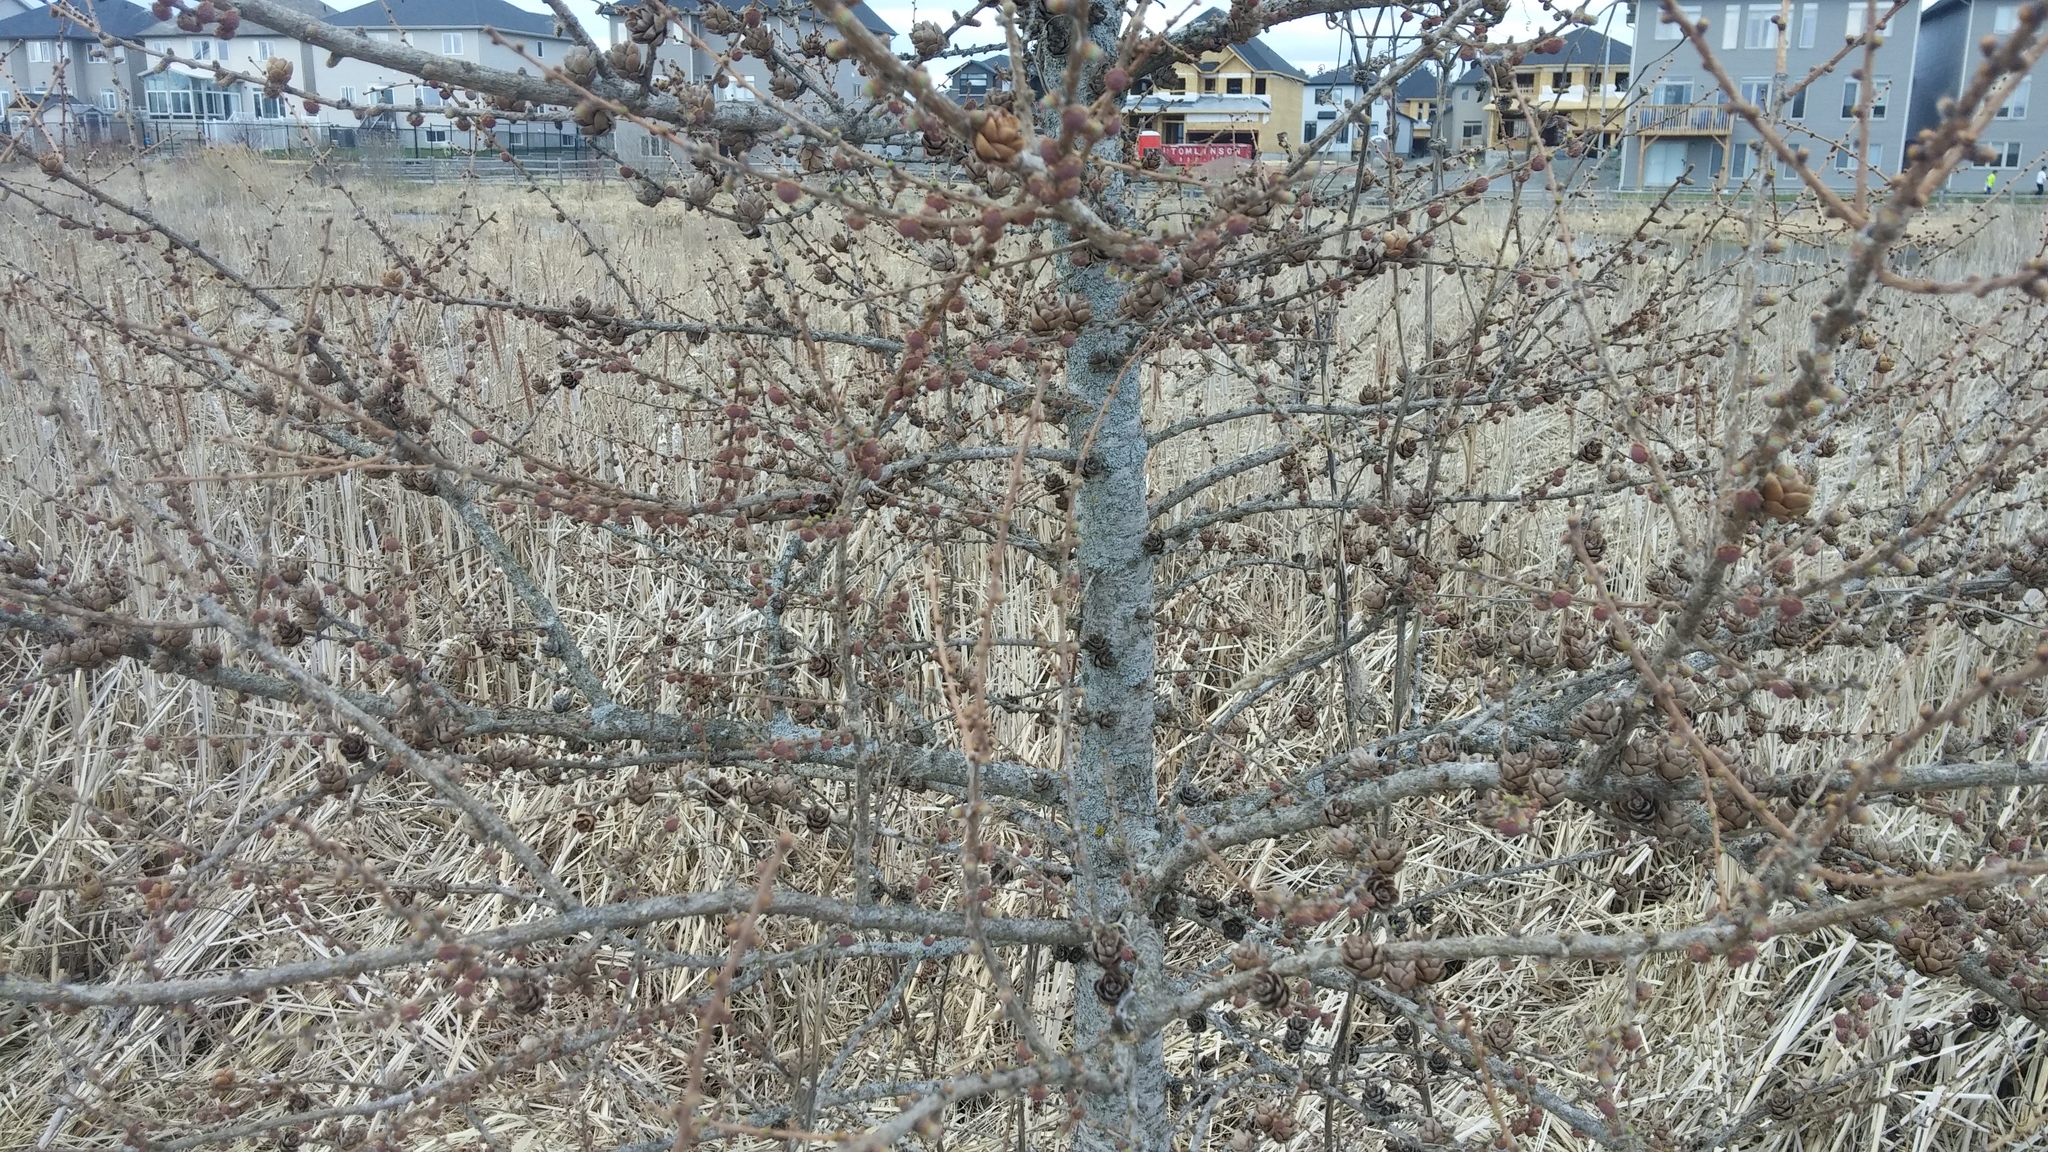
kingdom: Plantae
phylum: Tracheophyta
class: Pinopsida
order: Pinales
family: Pinaceae
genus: Larix
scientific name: Larix laricina
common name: American larch
